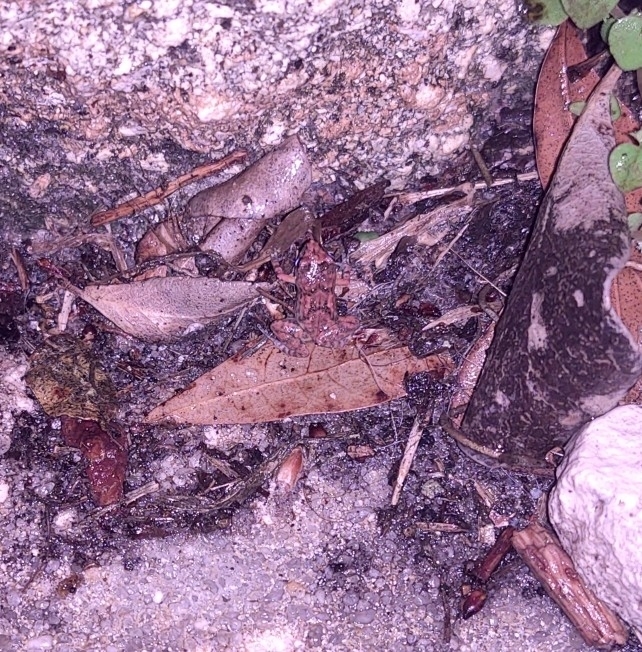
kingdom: Animalia
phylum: Chordata
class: Amphibia
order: Anura
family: Eleutherodactylidae
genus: Eleutherodactylus
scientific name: Eleutherodactylus planirostris
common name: Greenhouse frog
